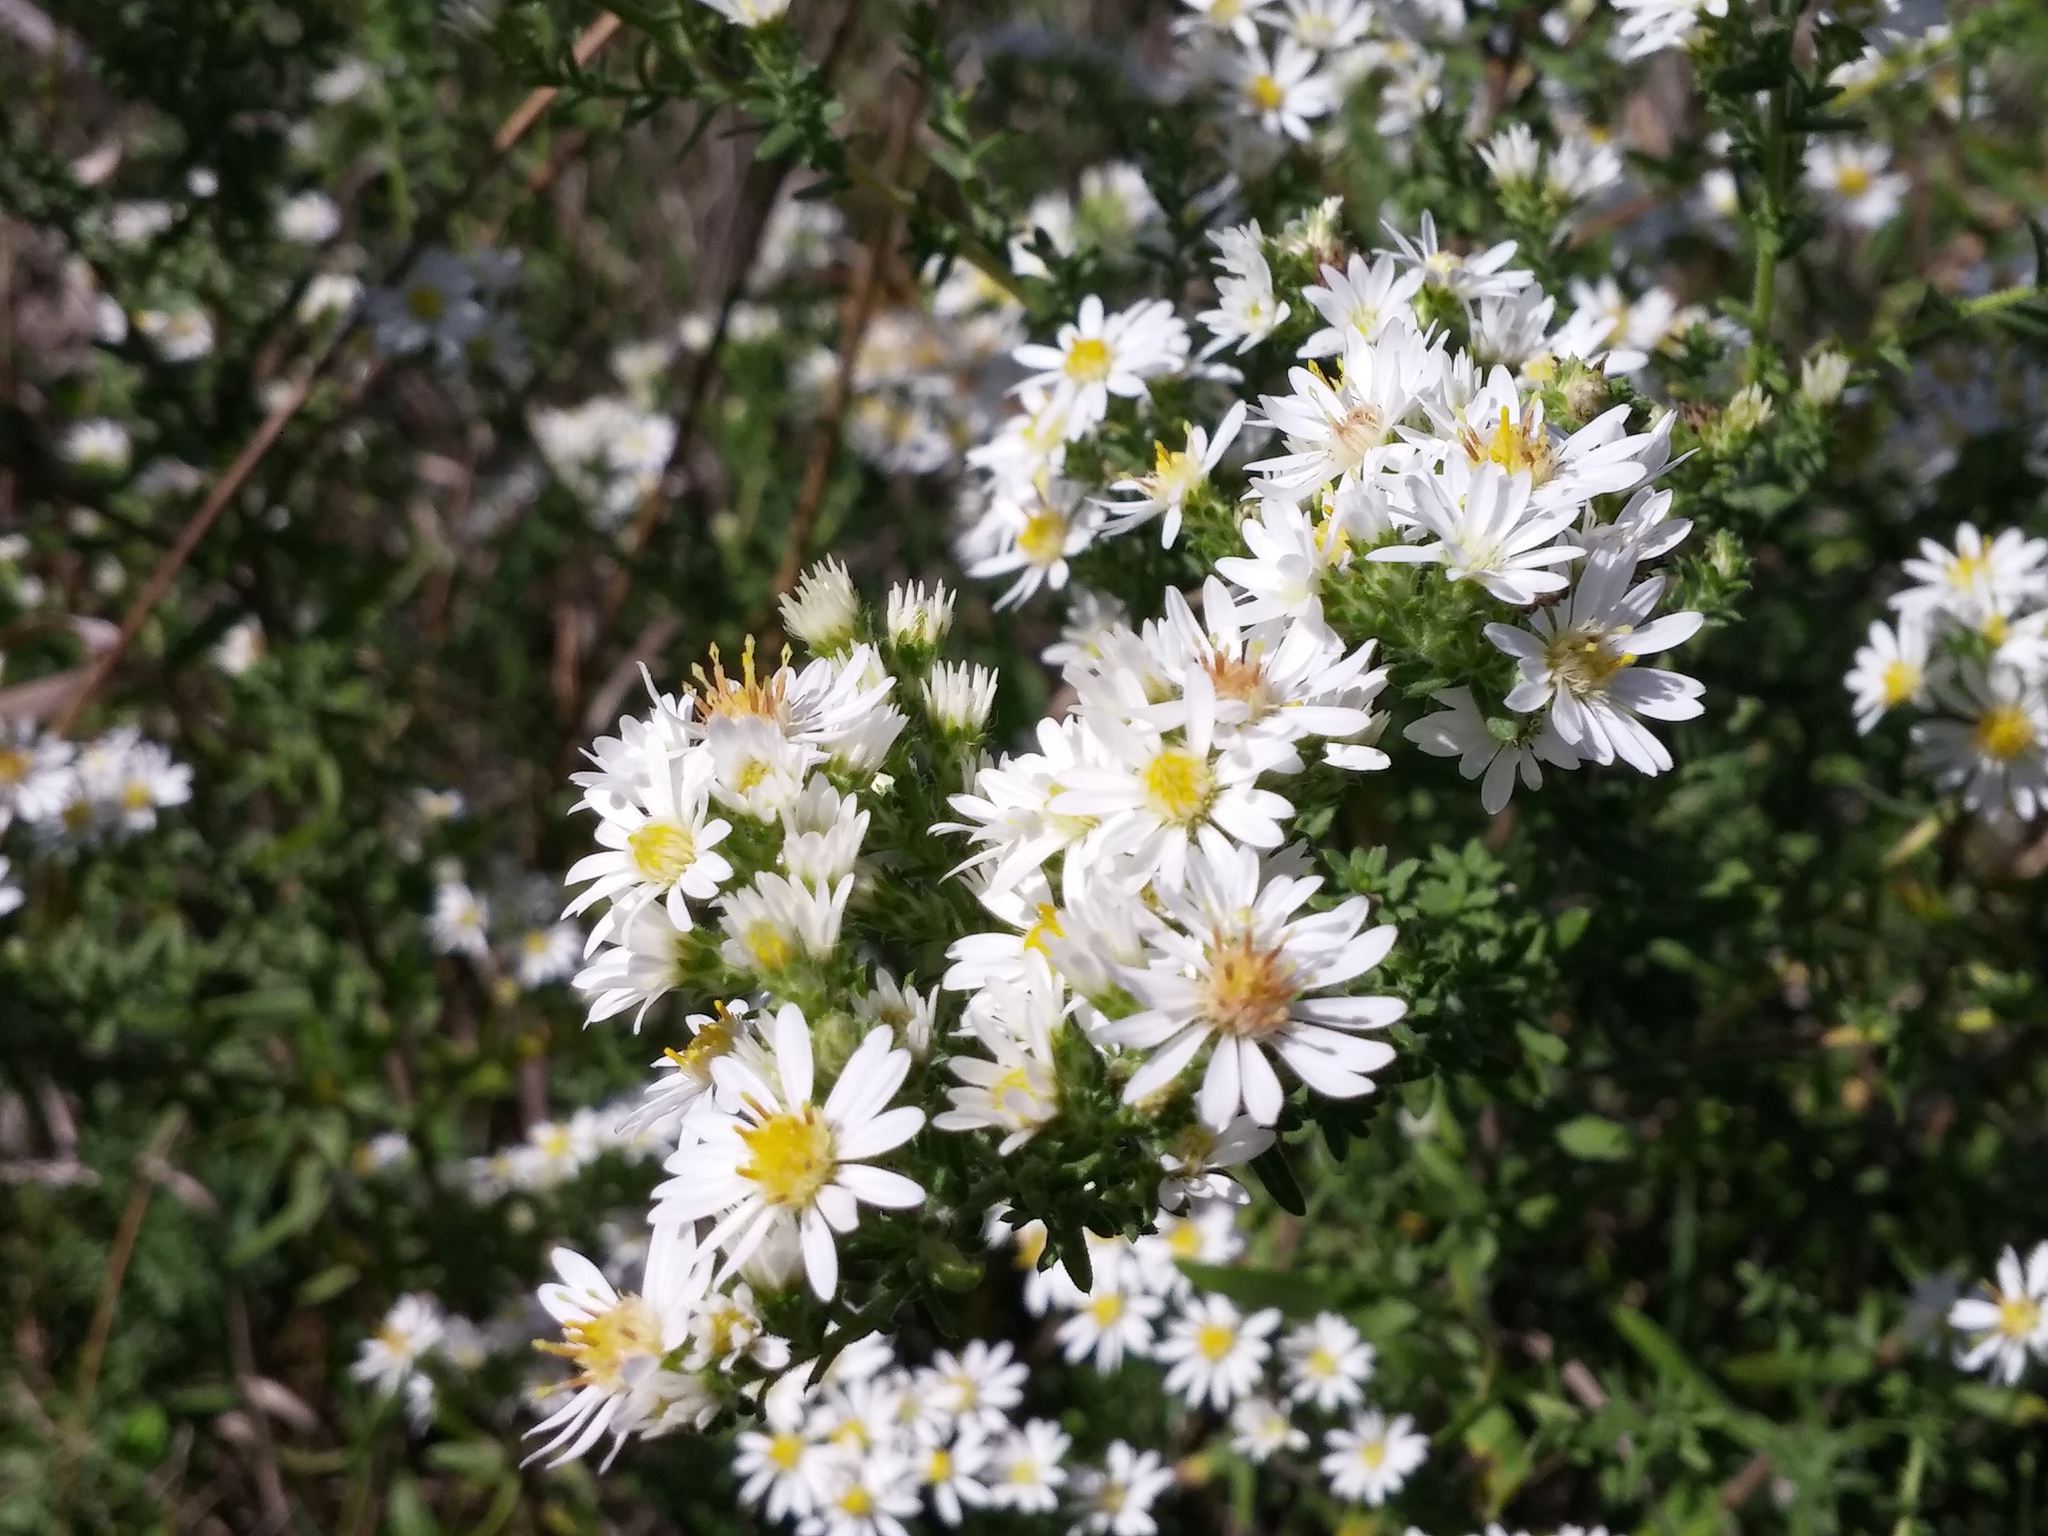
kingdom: Plantae
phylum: Tracheophyta
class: Magnoliopsida
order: Asterales
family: Asteraceae
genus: Symphyotrichum
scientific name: Symphyotrichum ericoides
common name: Heath aster
